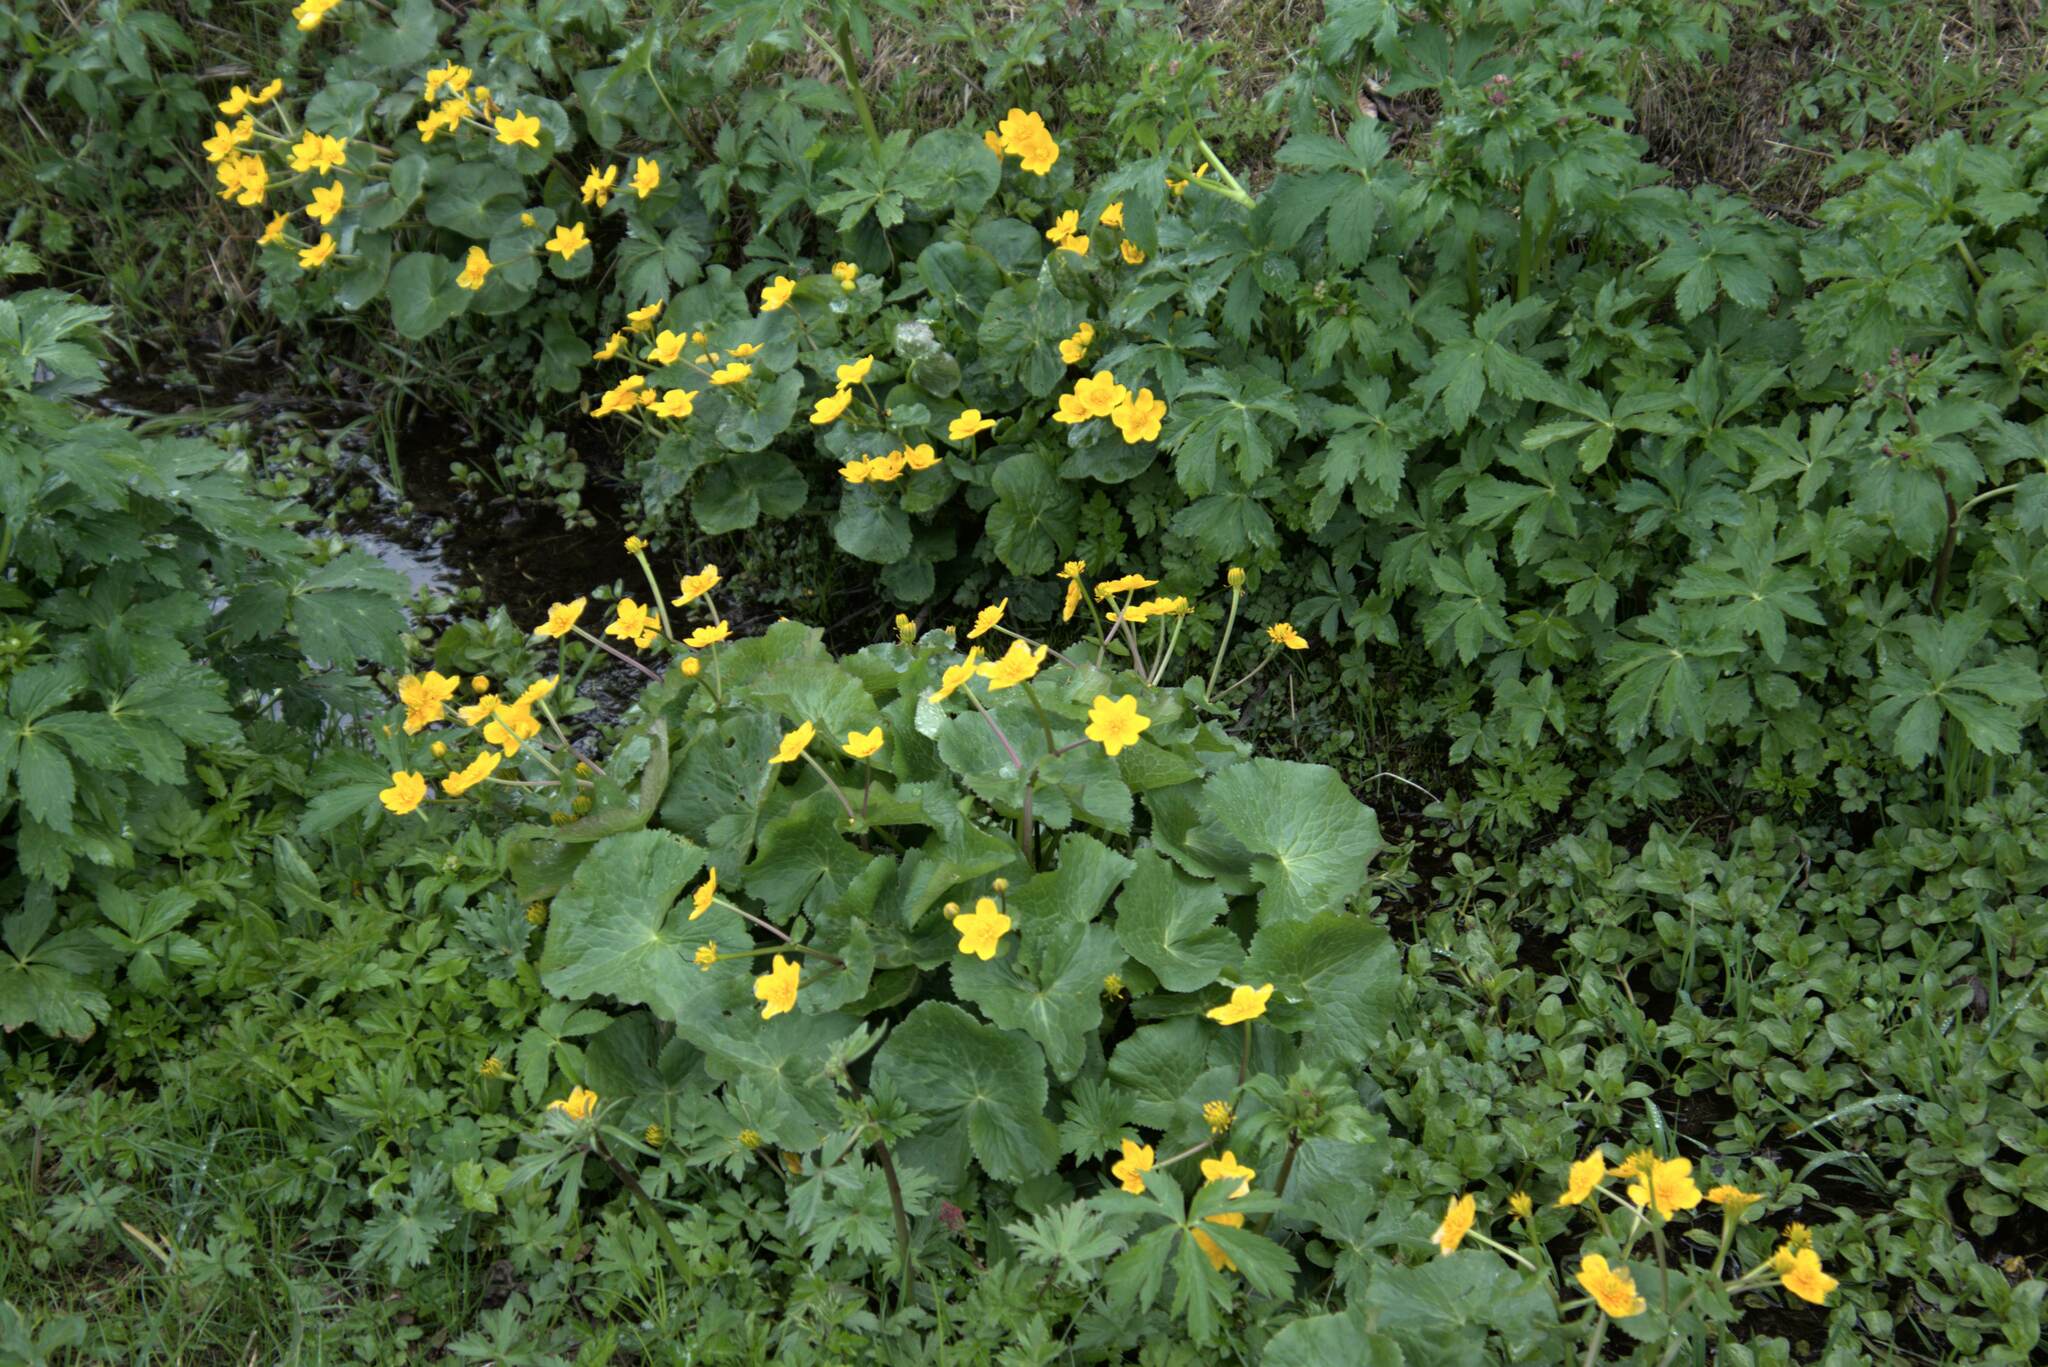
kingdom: Plantae
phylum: Tracheophyta
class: Magnoliopsida
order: Ranunculales
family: Ranunculaceae
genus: Caltha
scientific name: Caltha palustris
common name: Marsh marigold
